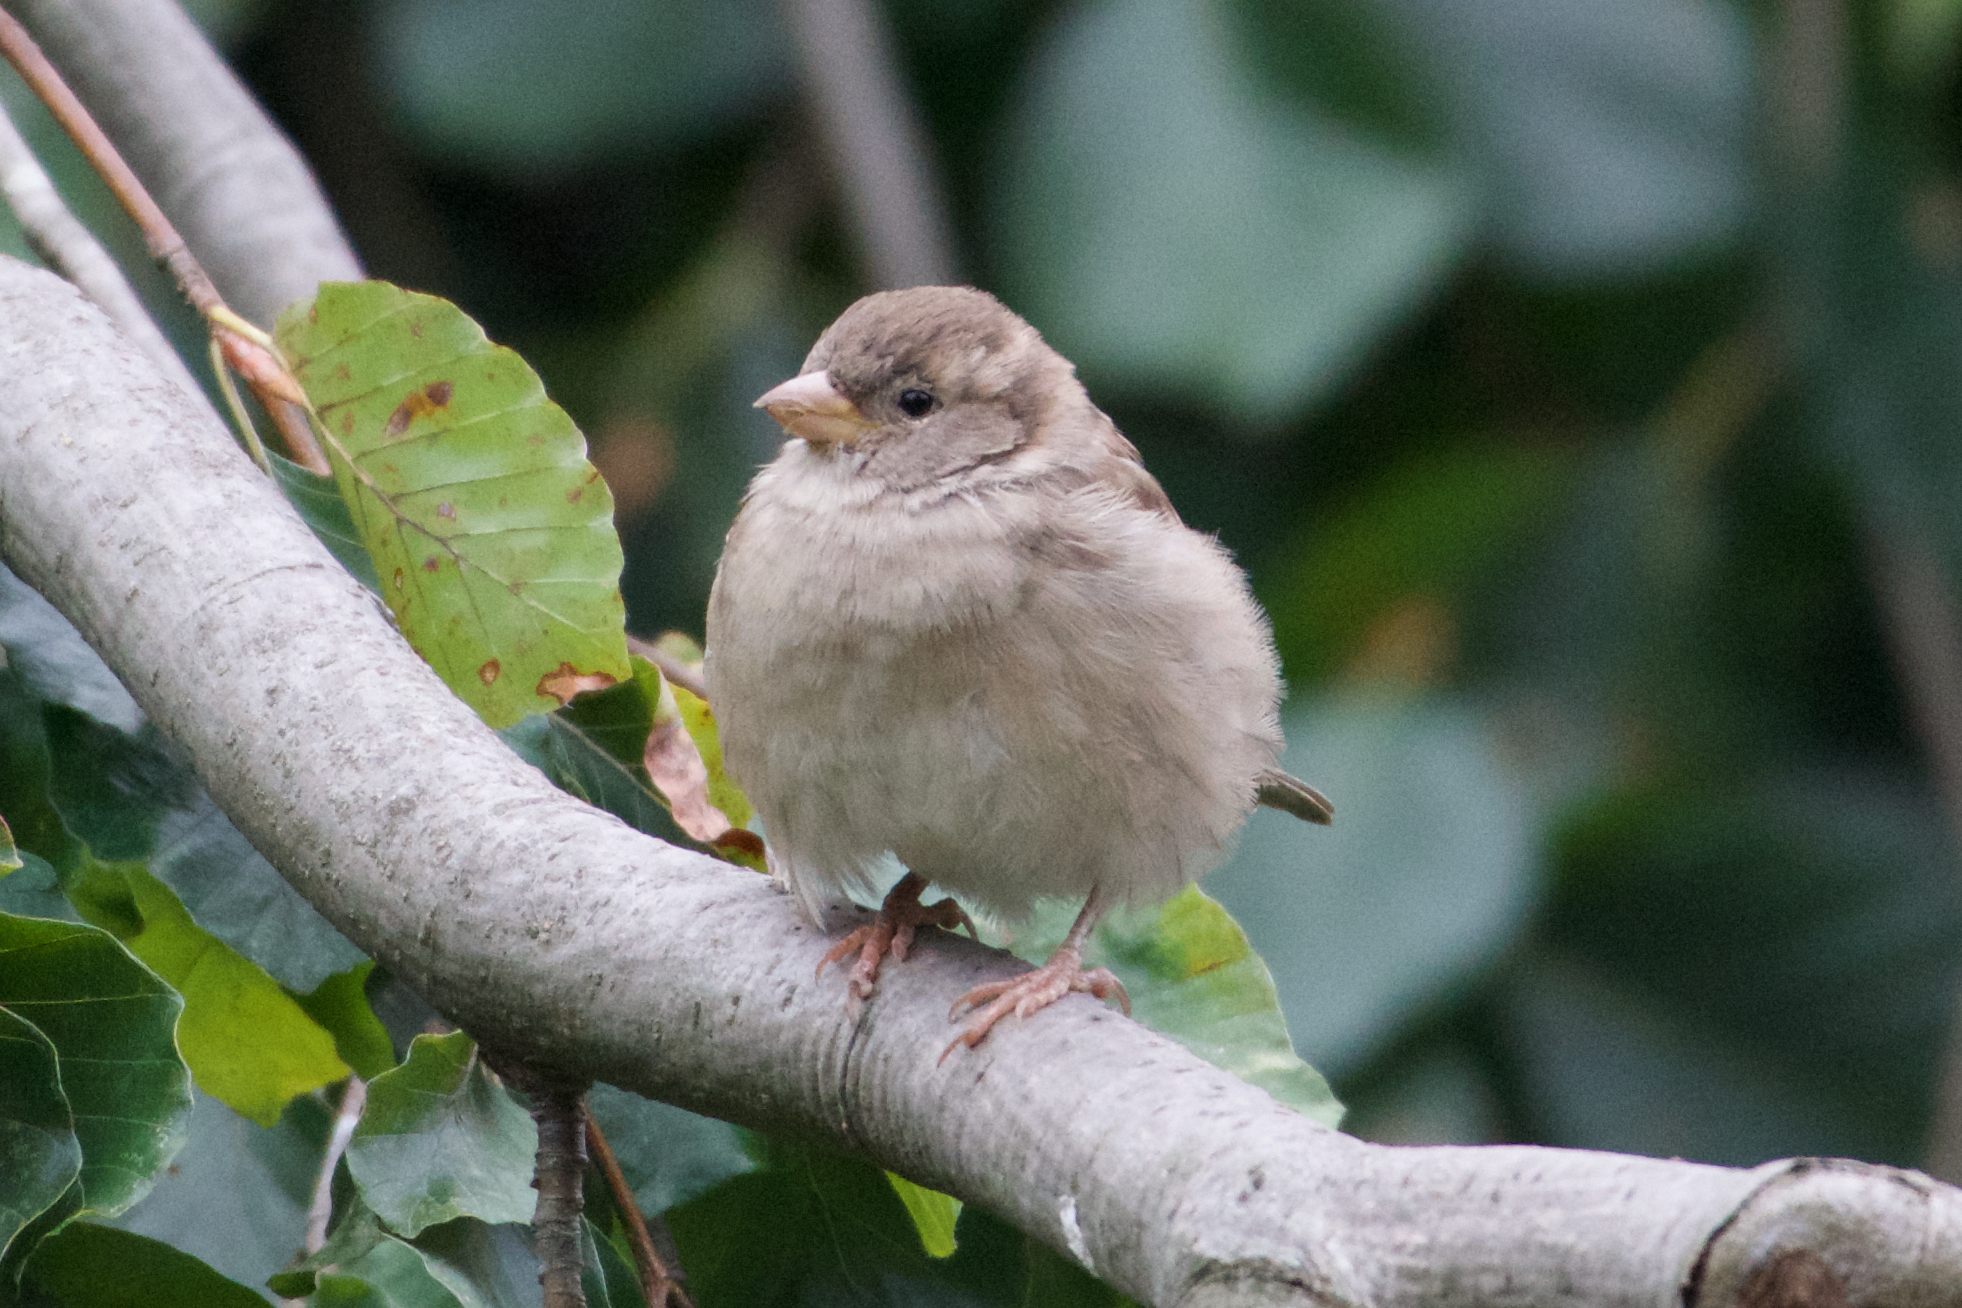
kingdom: Animalia
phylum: Chordata
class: Aves
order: Passeriformes
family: Passeridae
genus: Passer
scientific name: Passer domesticus
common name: House sparrow
